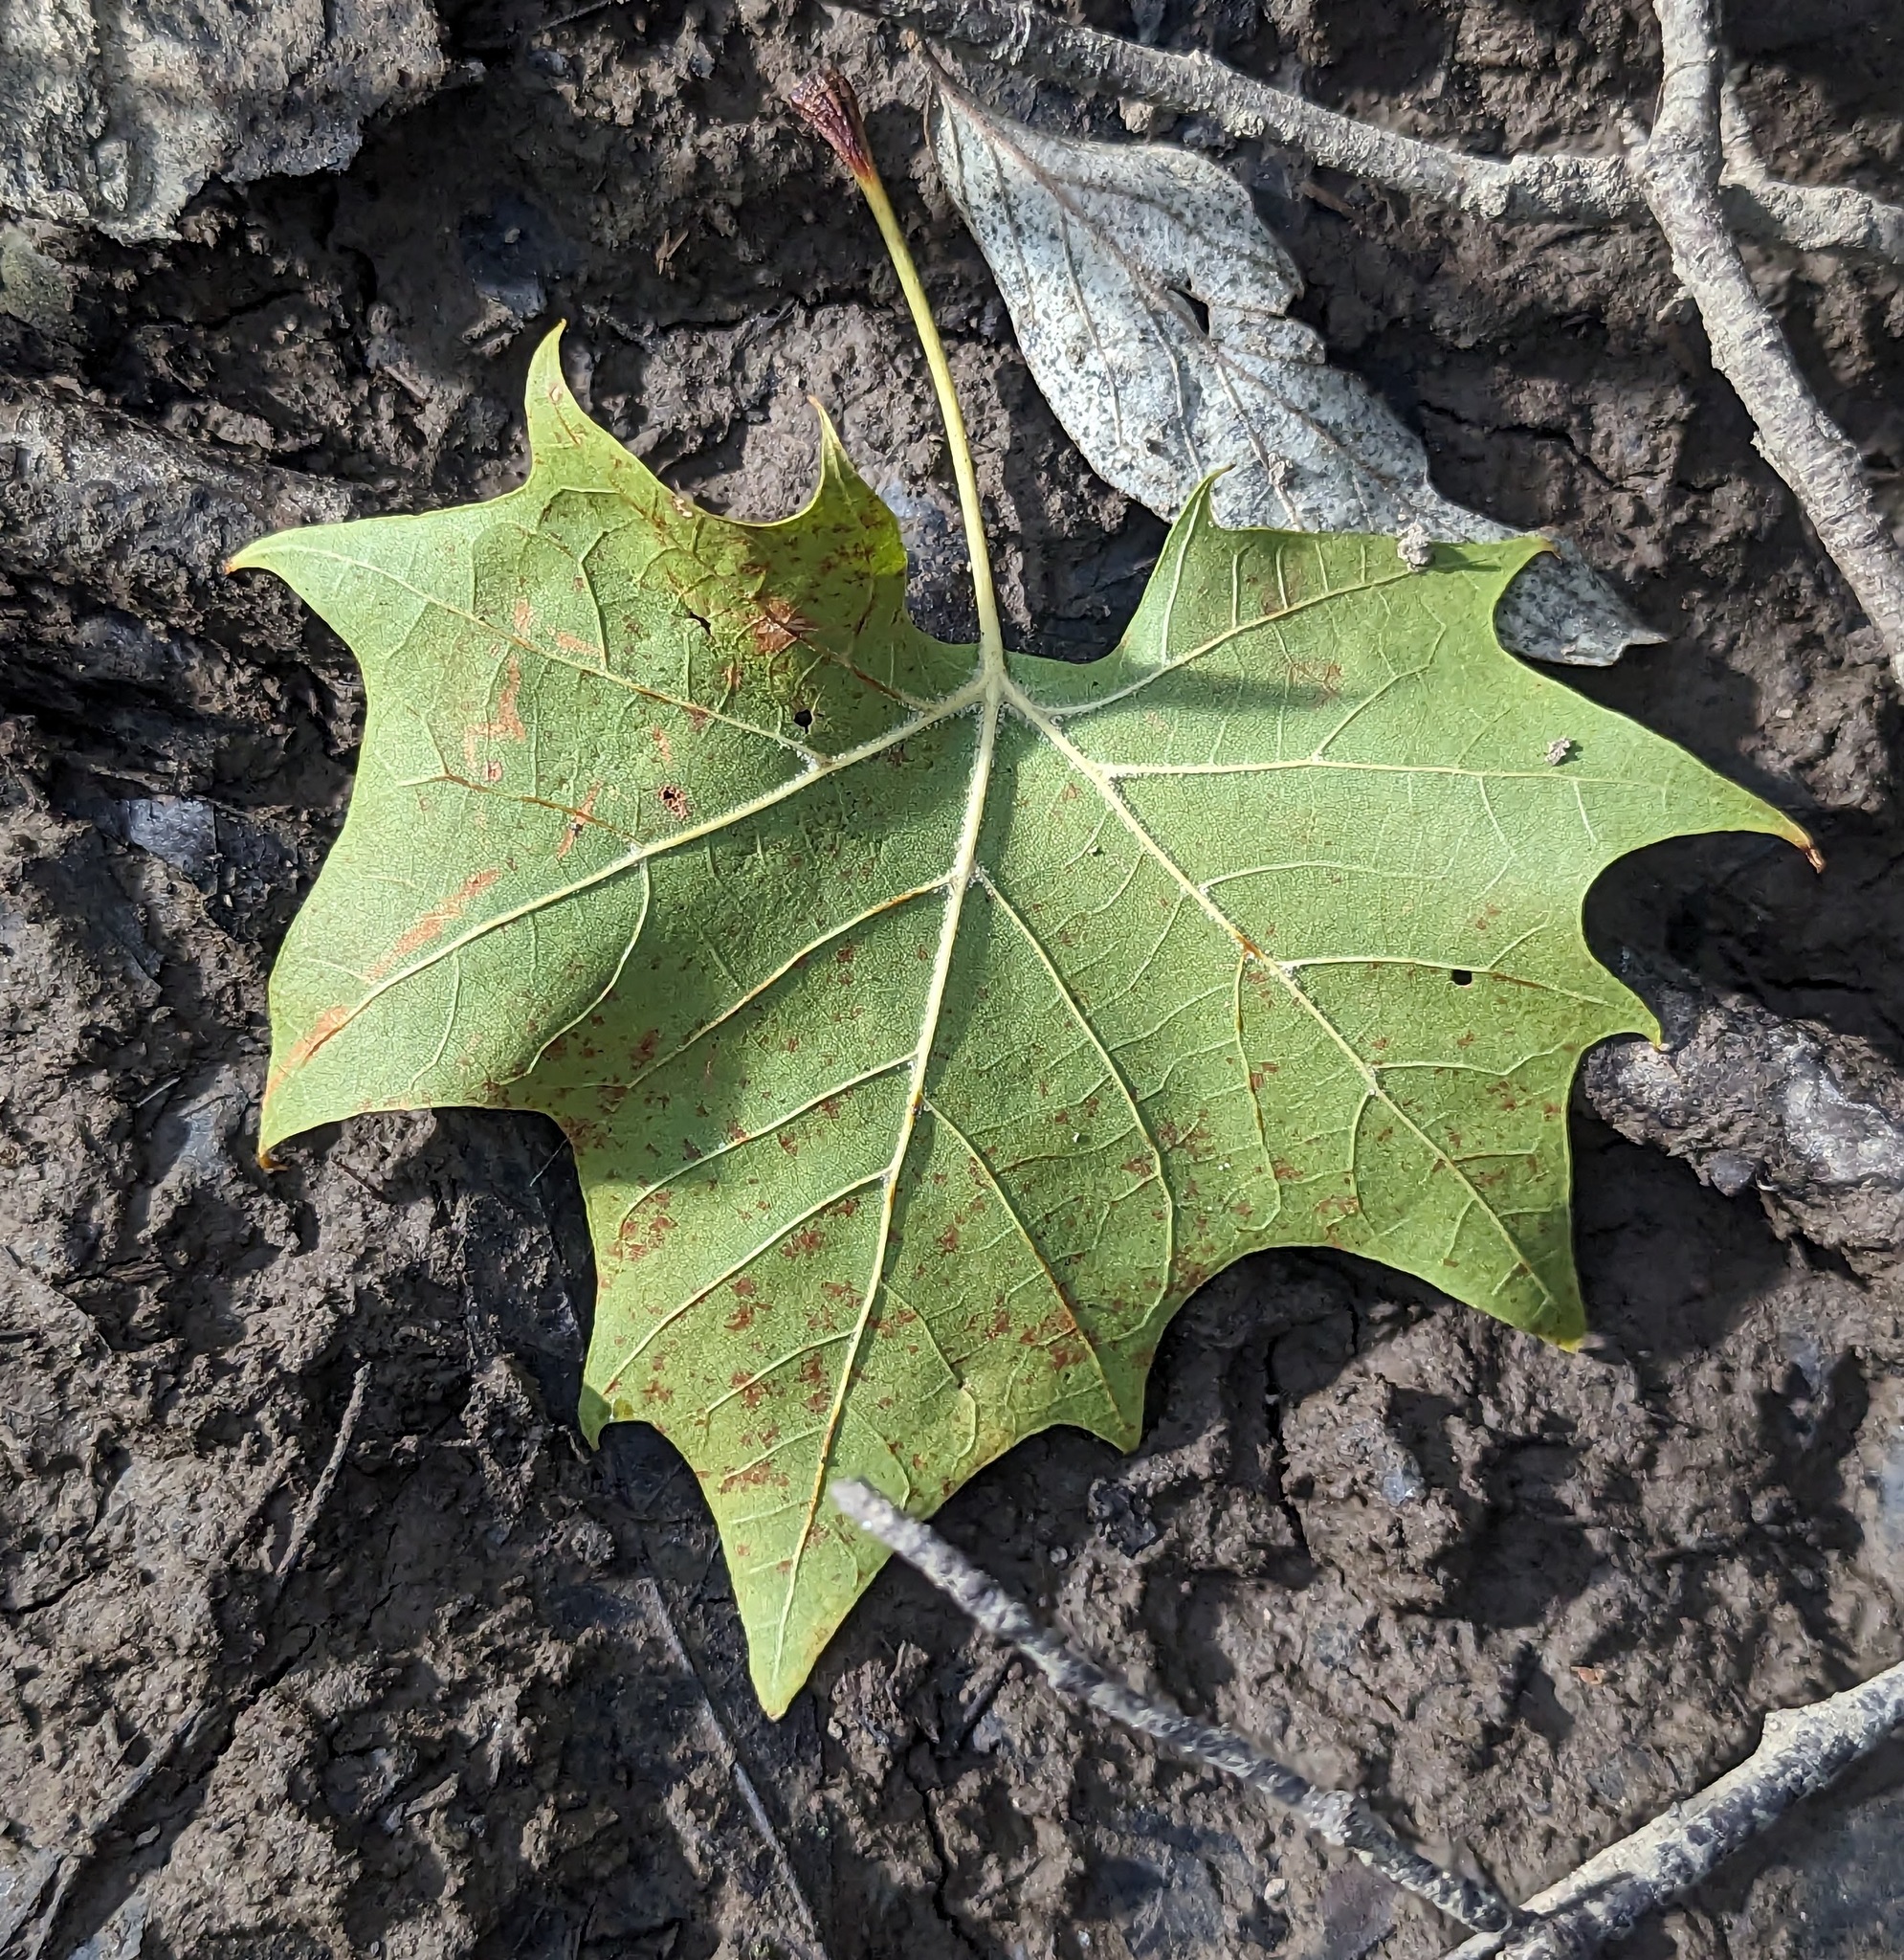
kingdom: Plantae
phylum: Tracheophyta
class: Magnoliopsida
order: Proteales
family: Platanaceae
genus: Platanus
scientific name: Platanus occidentalis
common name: American sycamore
